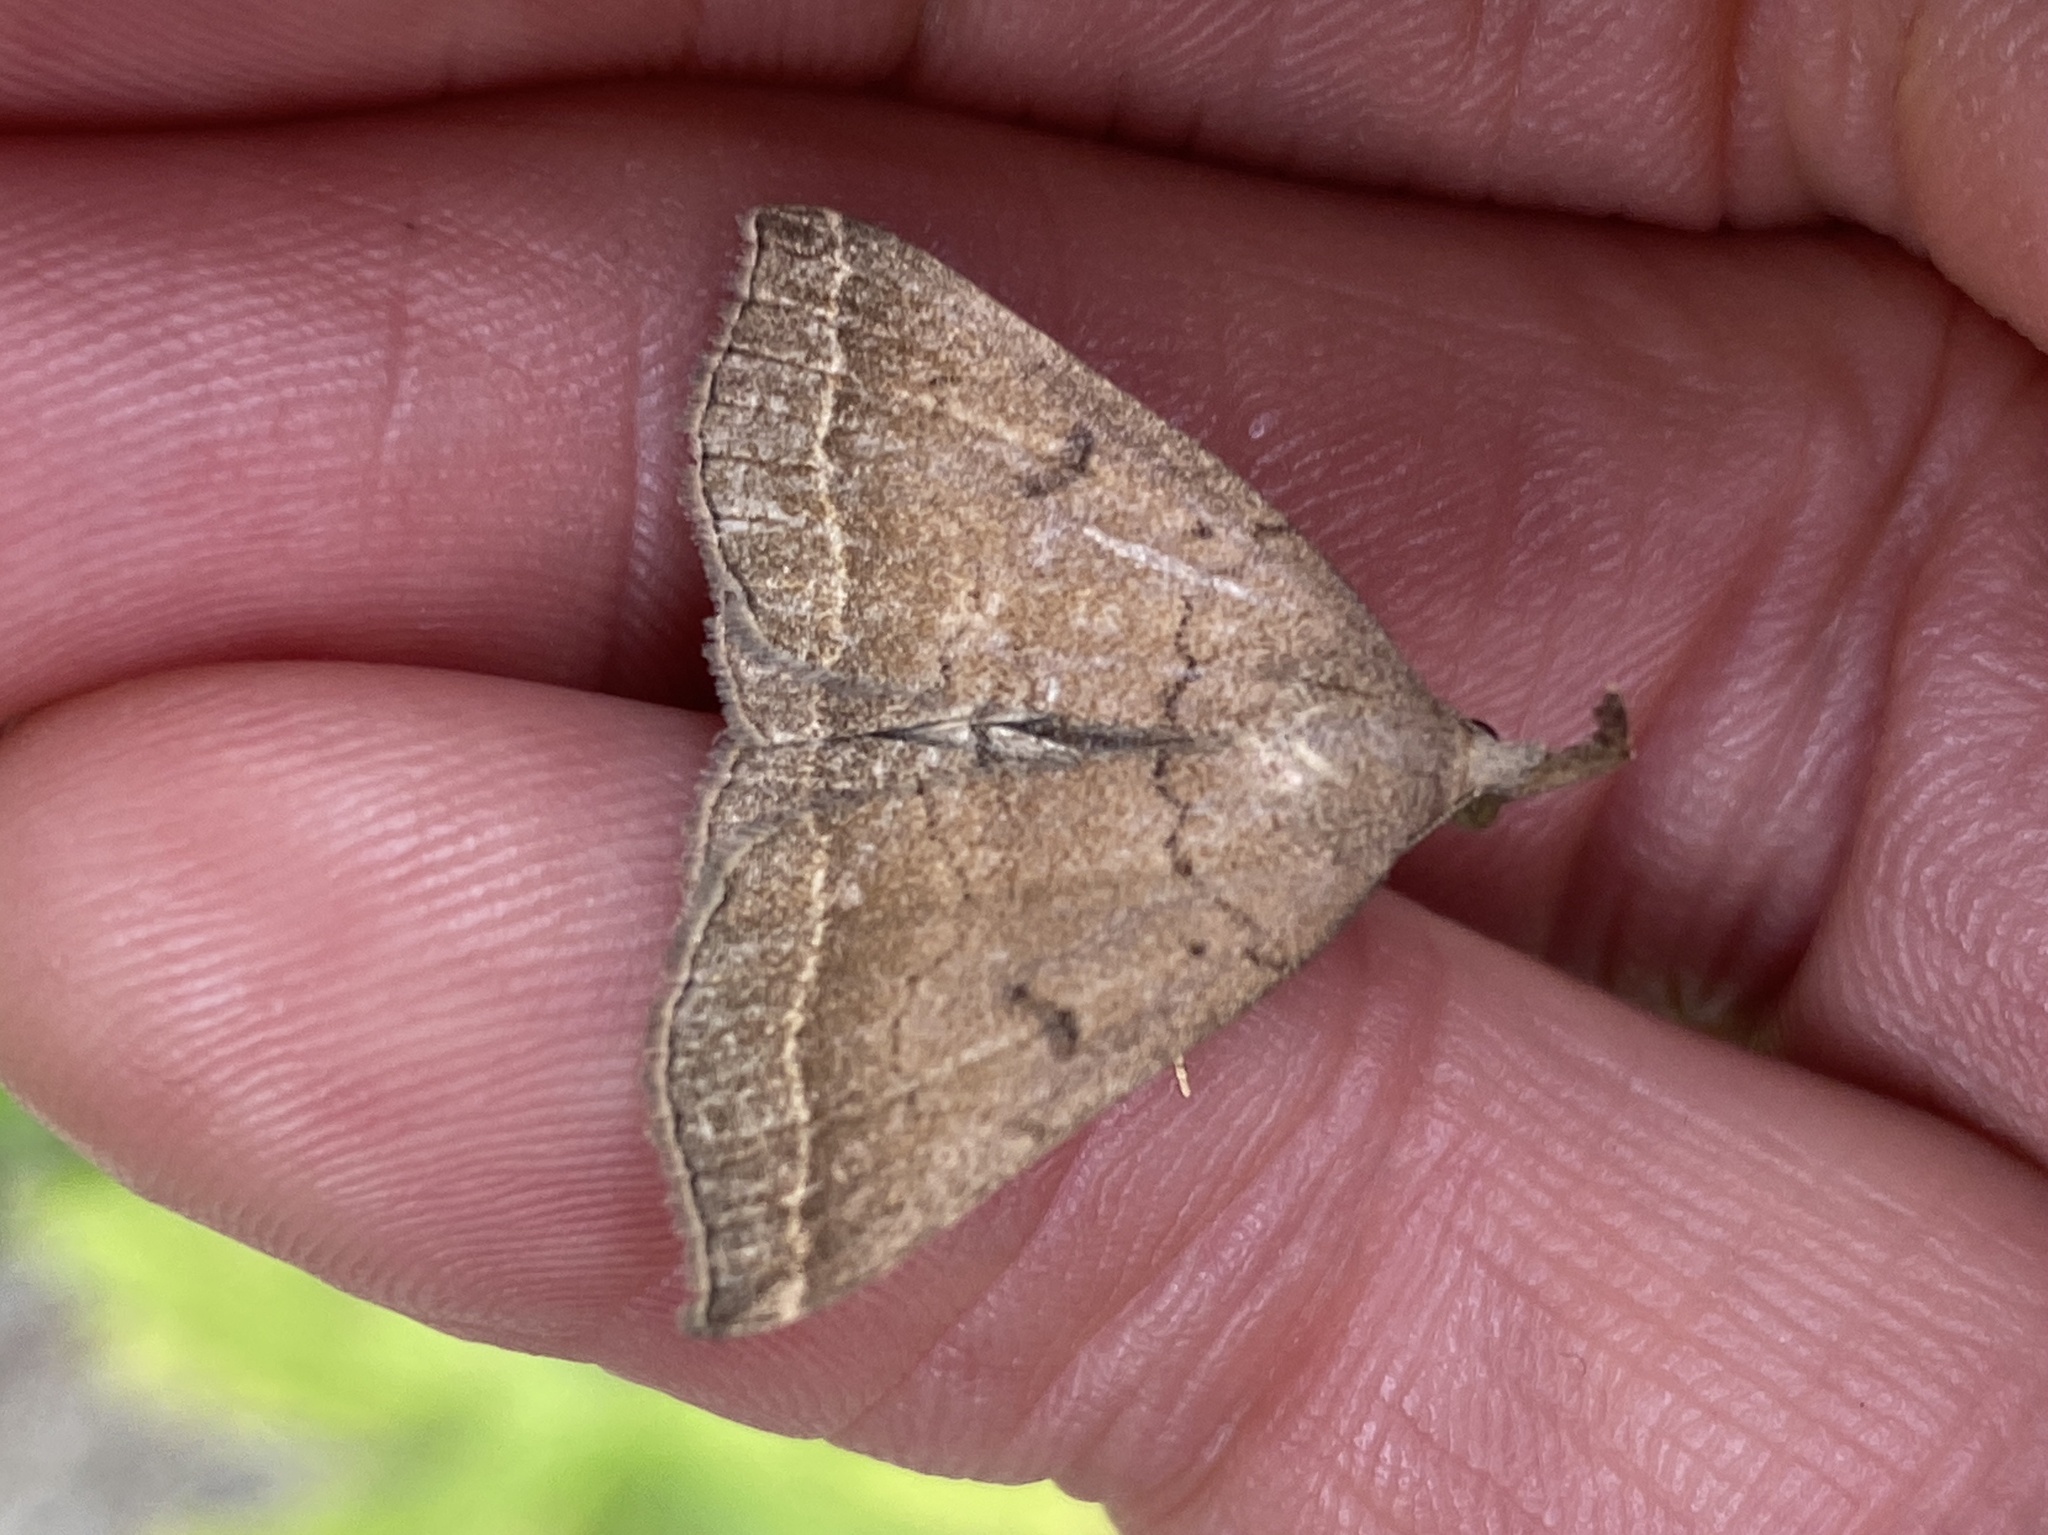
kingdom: Animalia
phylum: Arthropoda
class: Insecta
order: Lepidoptera
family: Erebidae
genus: Pechipogo
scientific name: Pechipogo plumigeralis
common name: Plumed fan-foot
